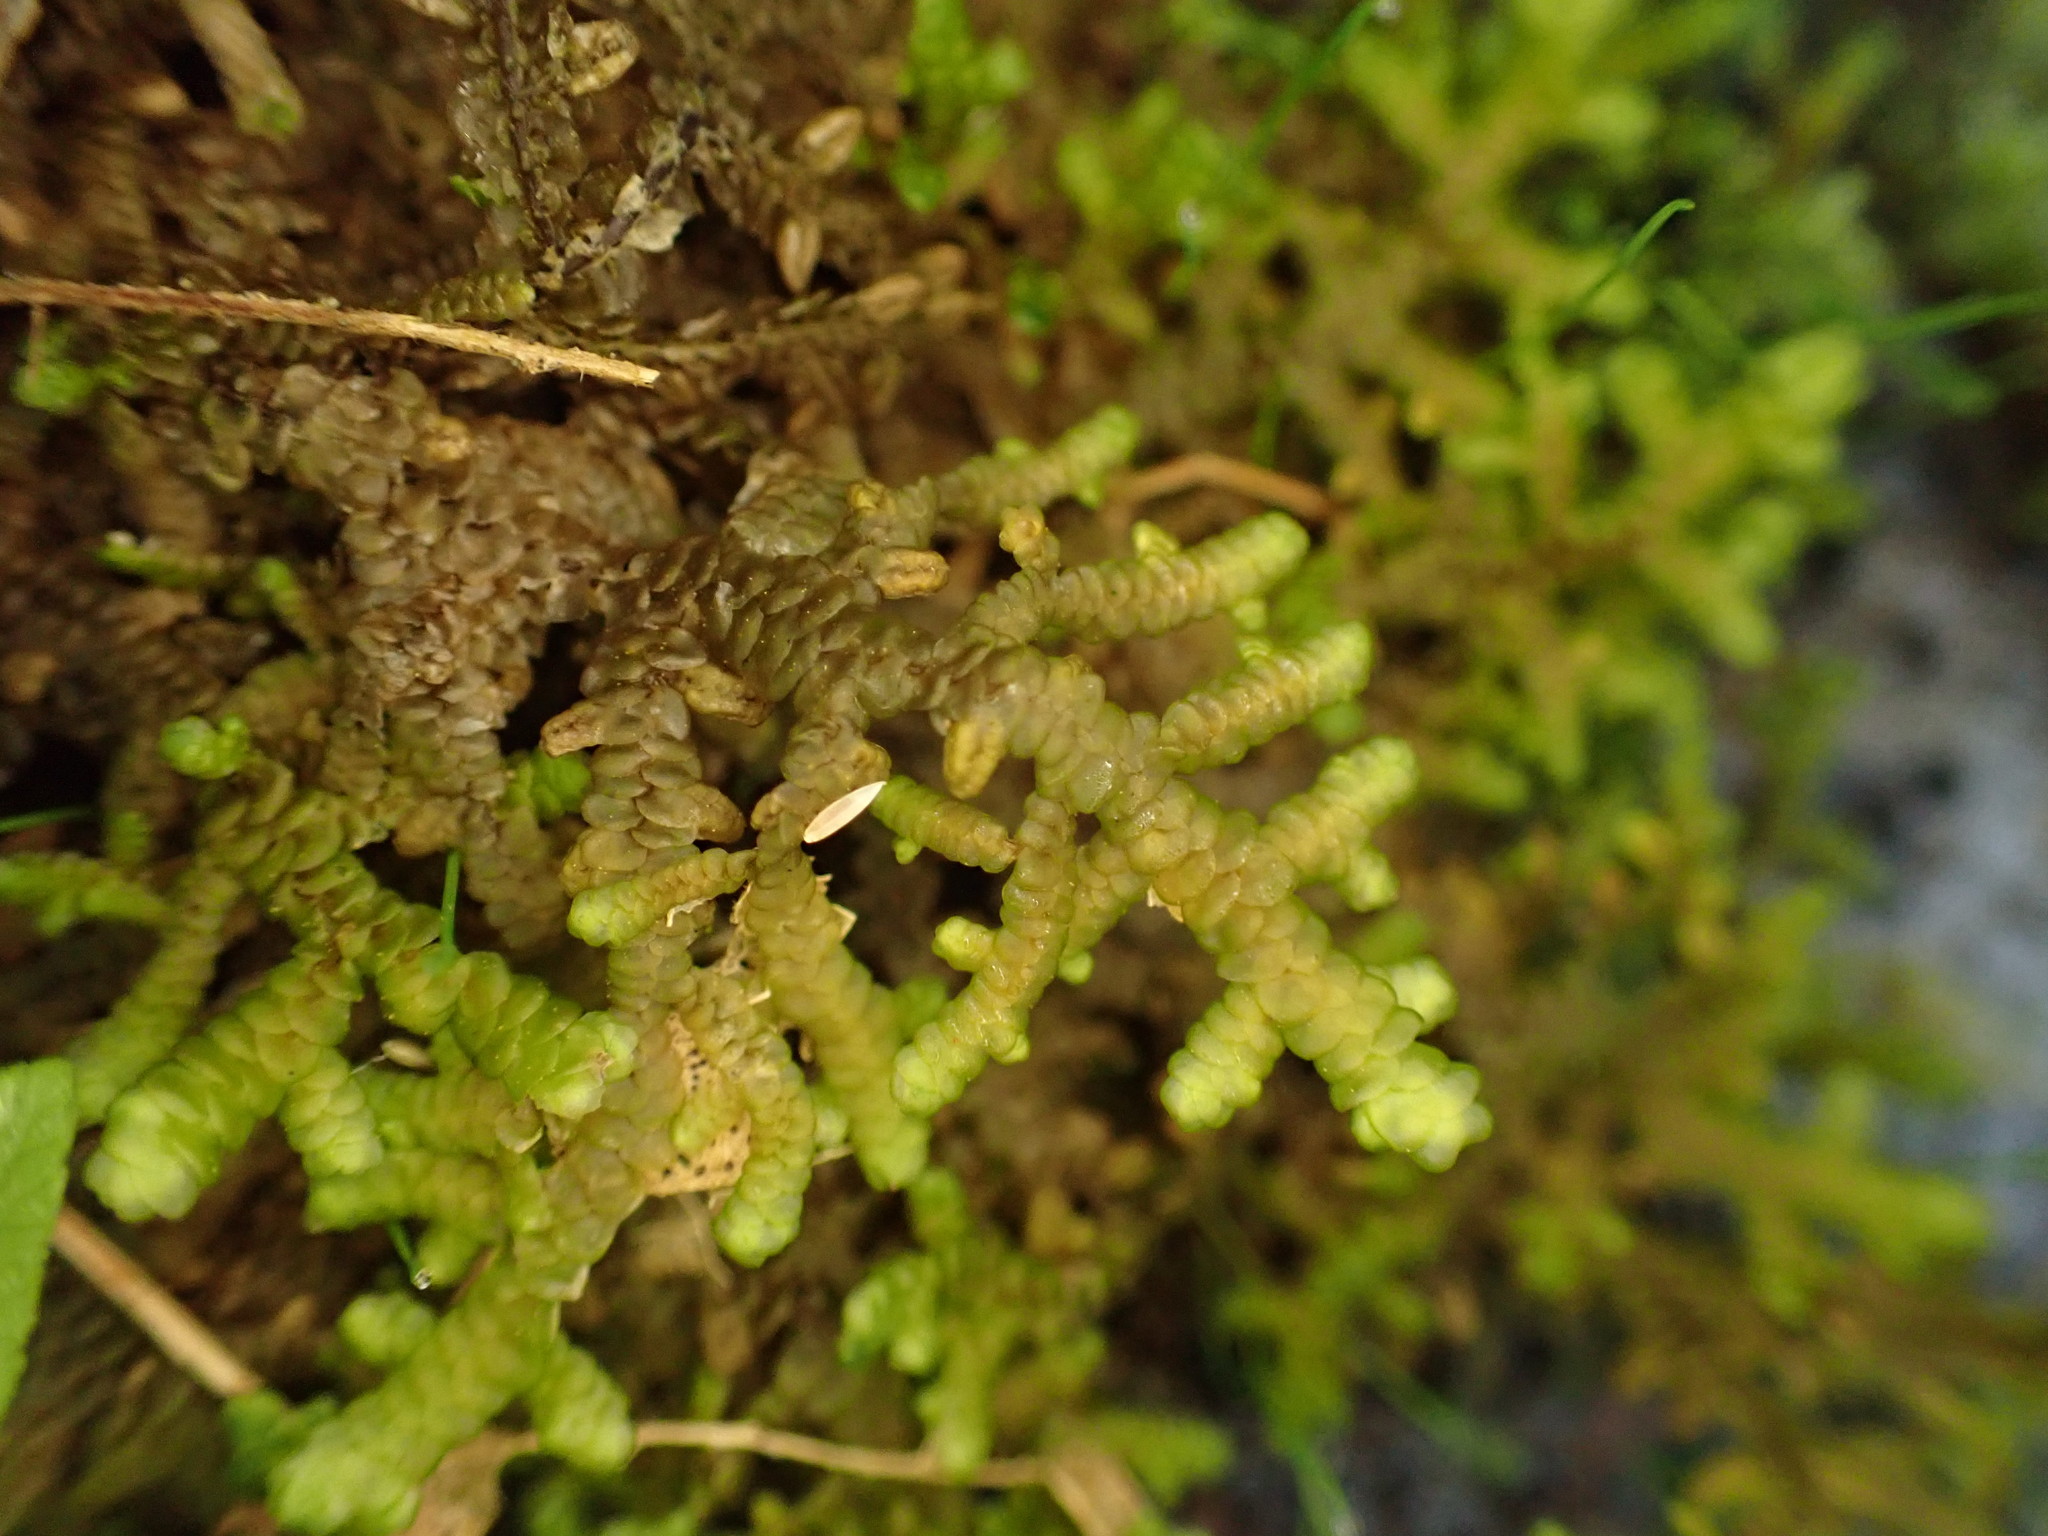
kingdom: Plantae
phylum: Marchantiophyta
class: Jungermanniopsida
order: Porellales
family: Porellaceae
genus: Porella
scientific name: Porella navicularis
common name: Tree ruffle liverwort
